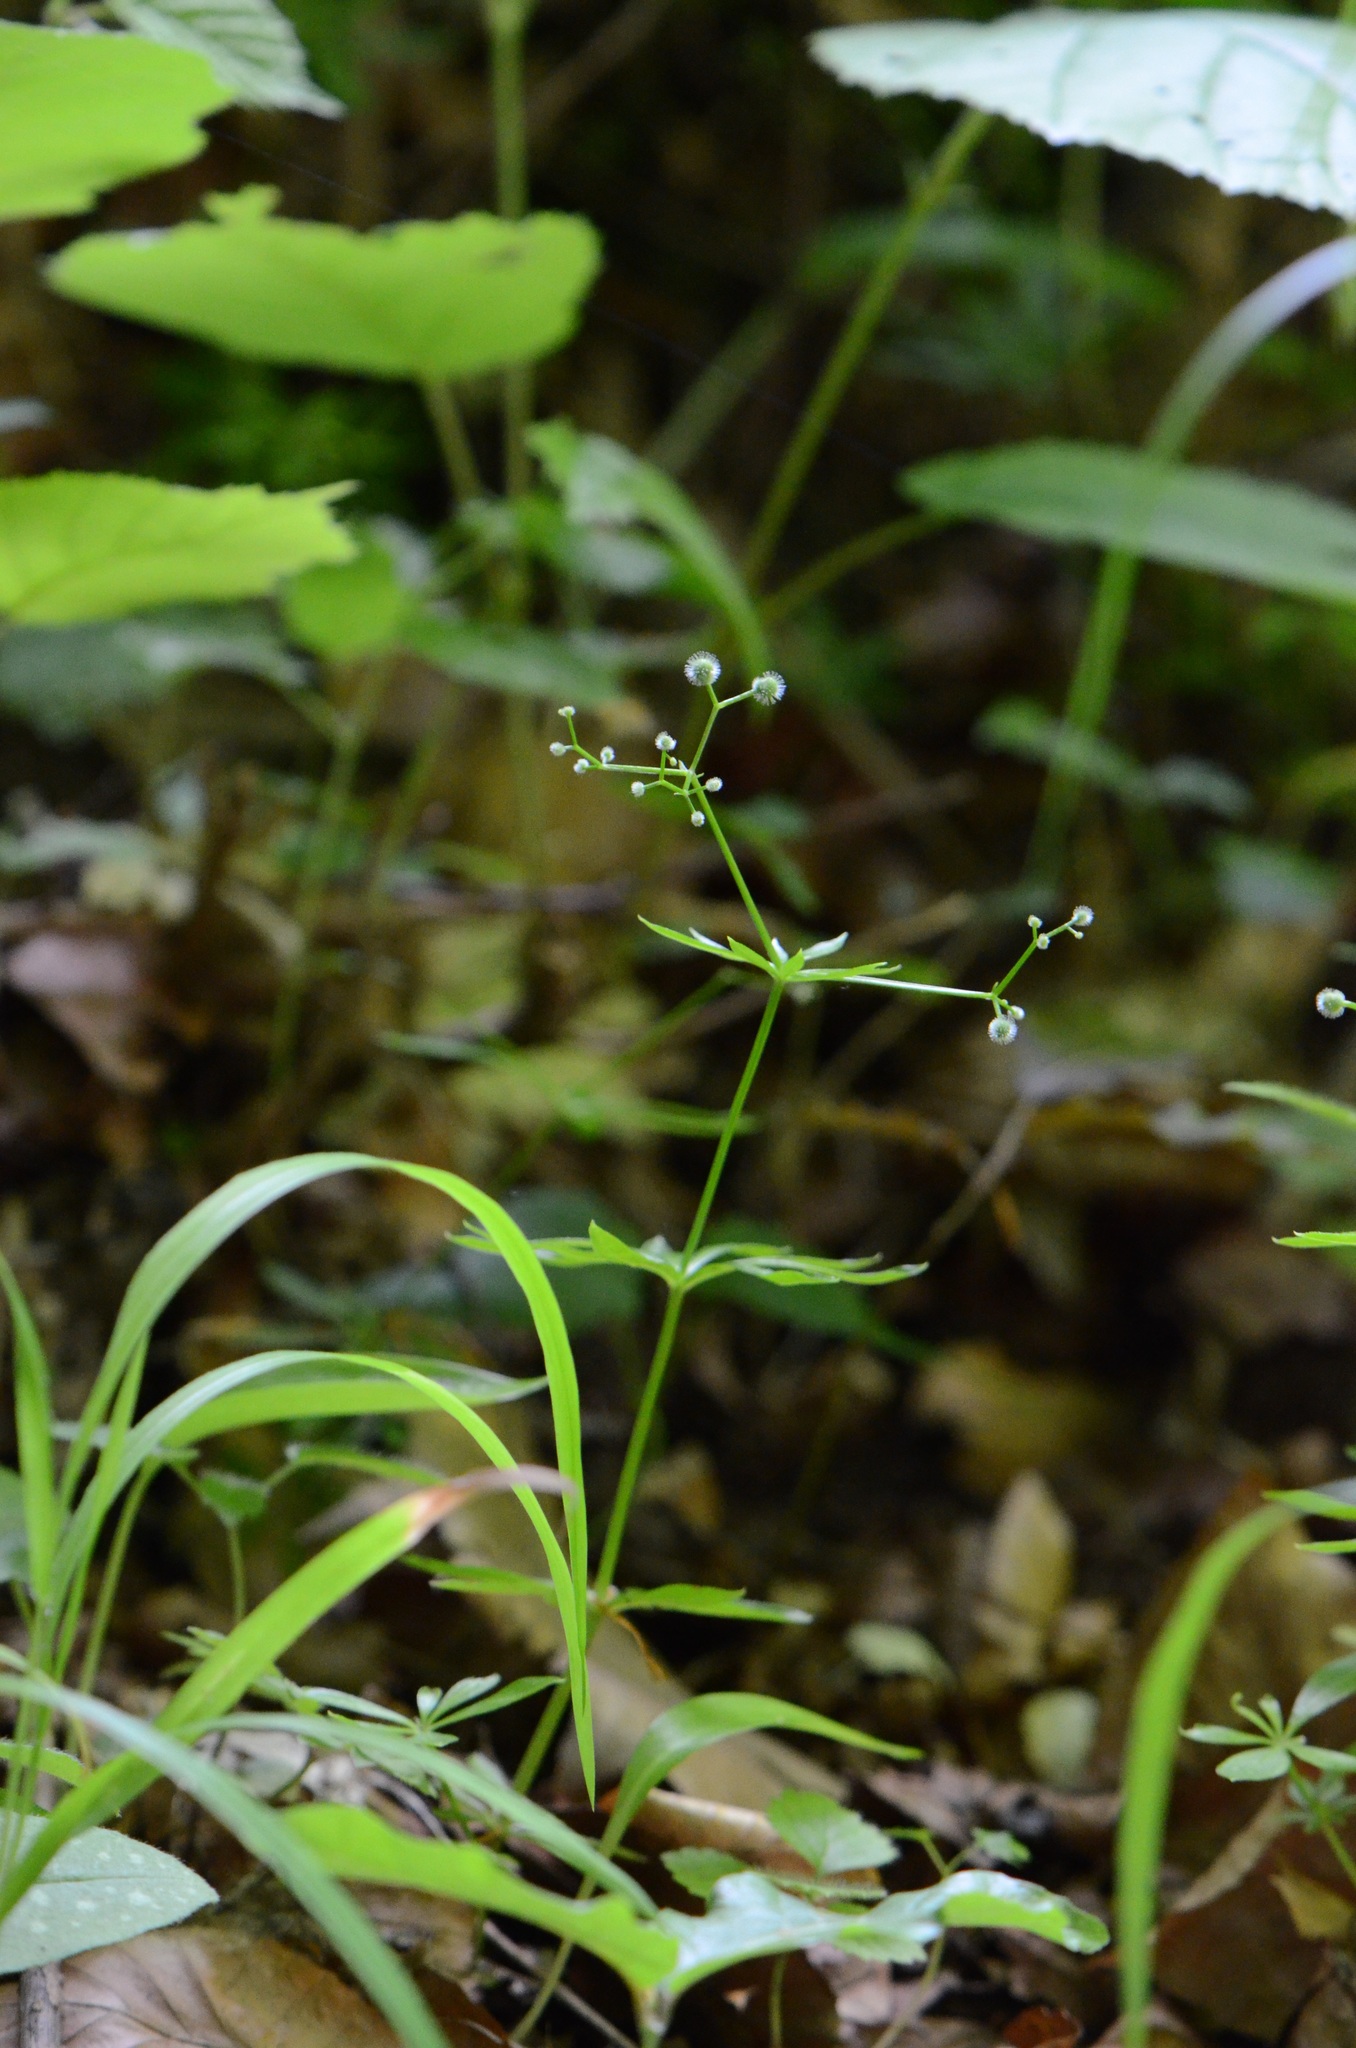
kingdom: Plantae
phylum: Tracheophyta
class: Magnoliopsida
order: Gentianales
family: Rubiaceae
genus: Galium
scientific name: Galium odoratum
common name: Sweet woodruff
